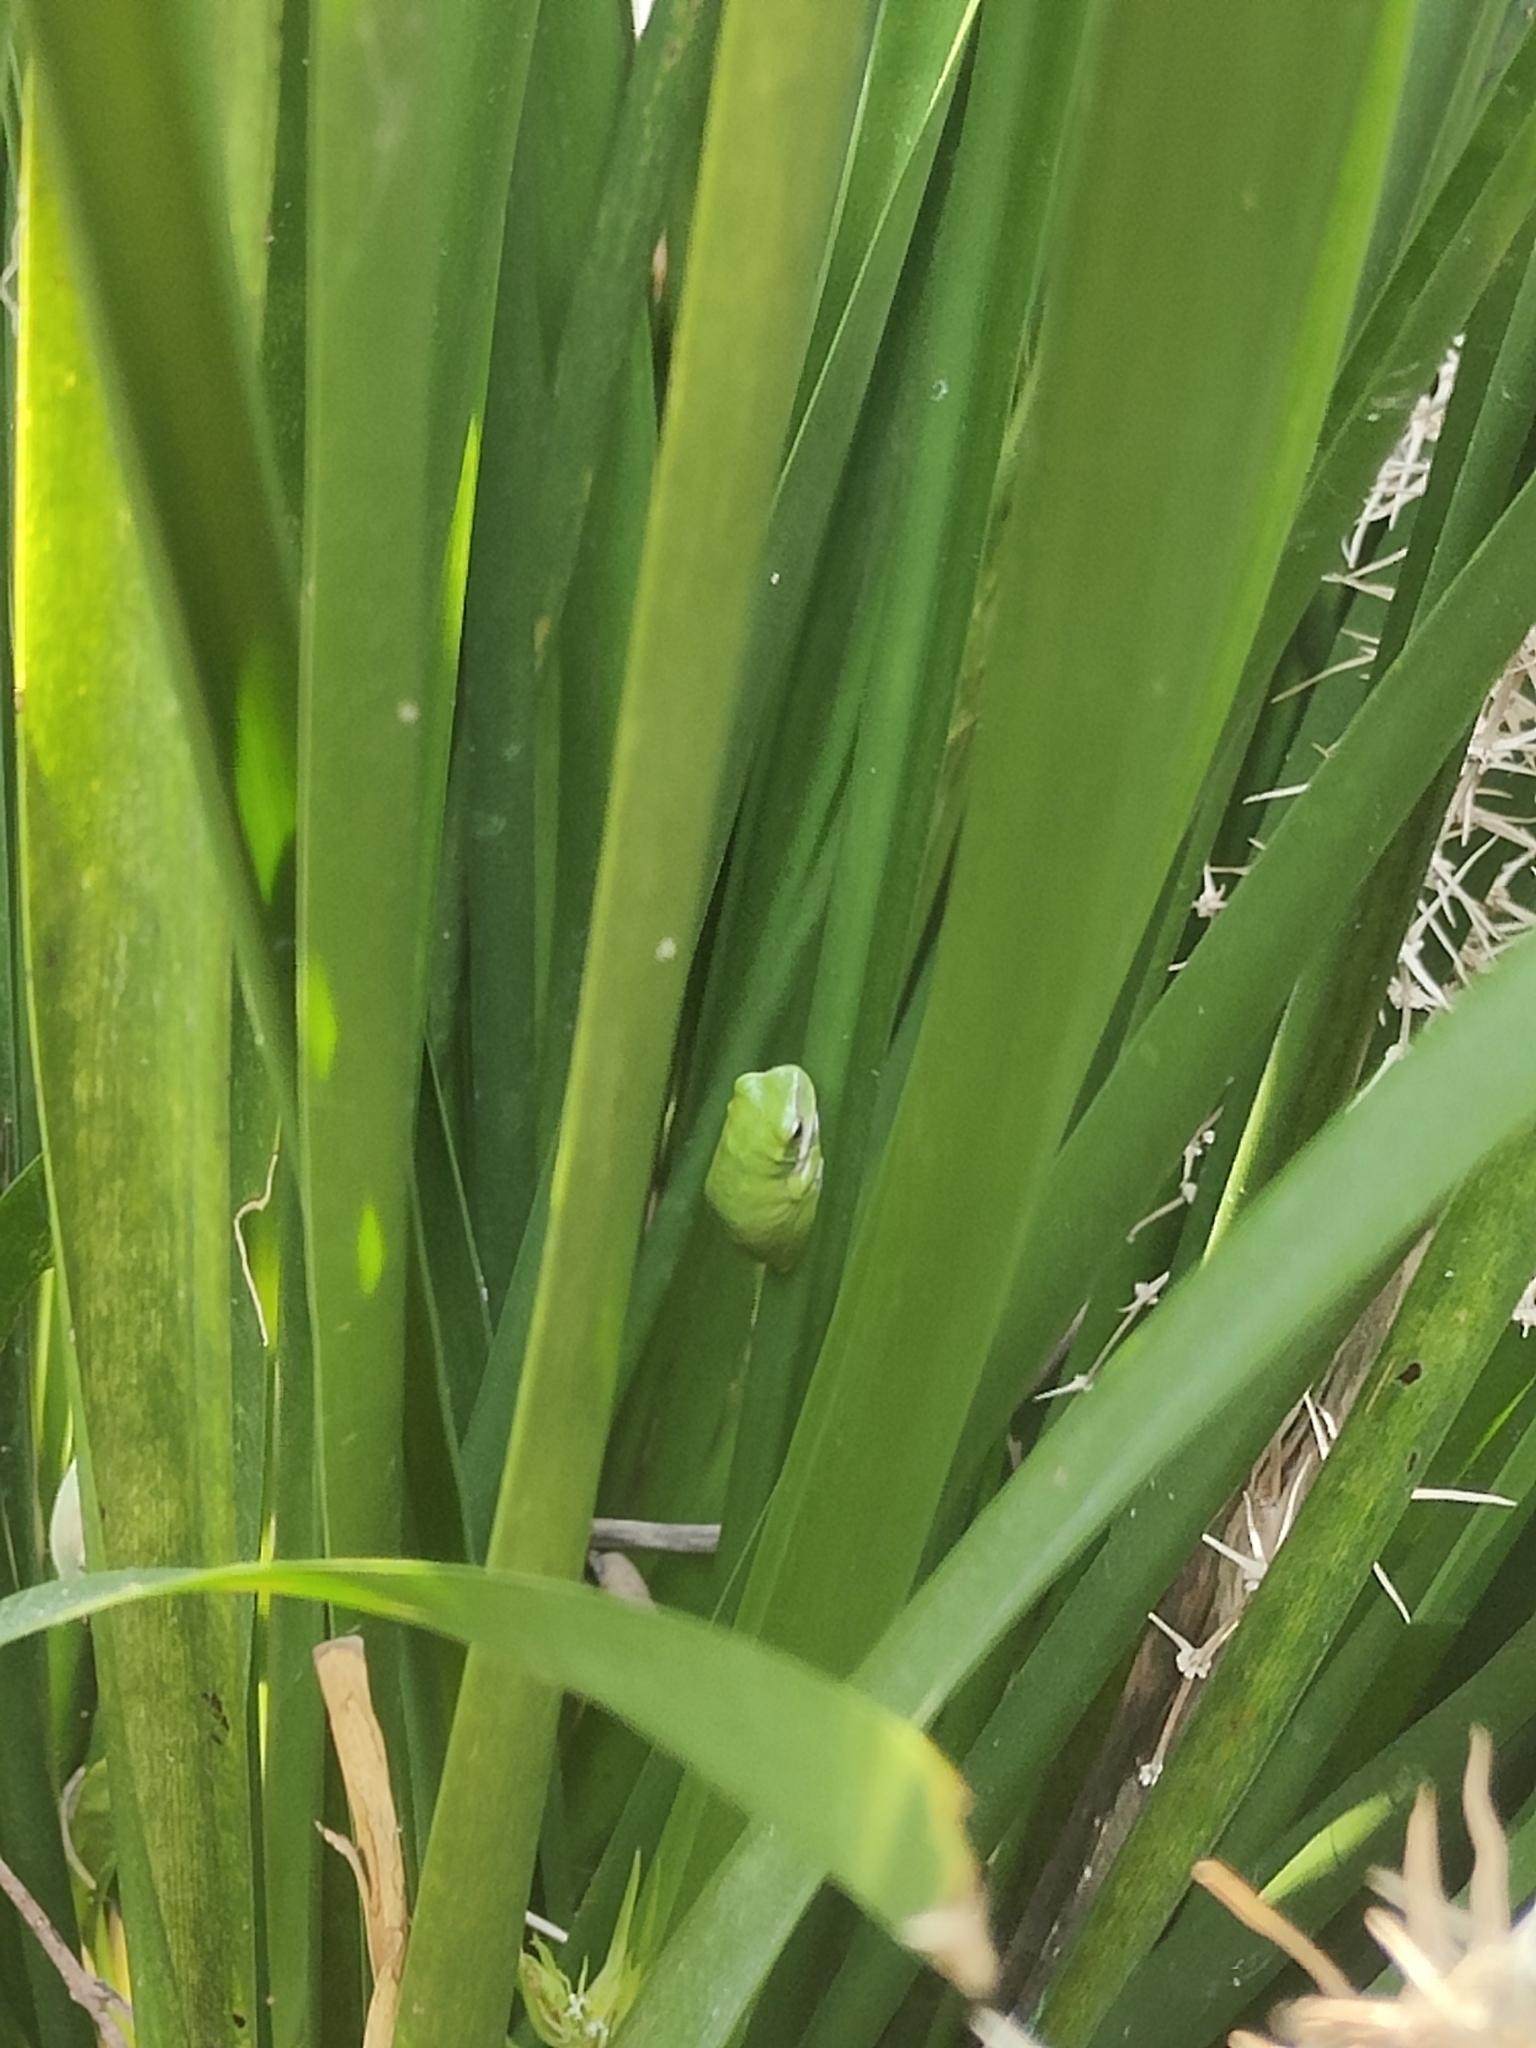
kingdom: Animalia
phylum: Chordata
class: Amphibia
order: Anura
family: Pelodryadidae
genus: Litoria
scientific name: Litoria fallax
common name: Eastern dwarf treefrog
